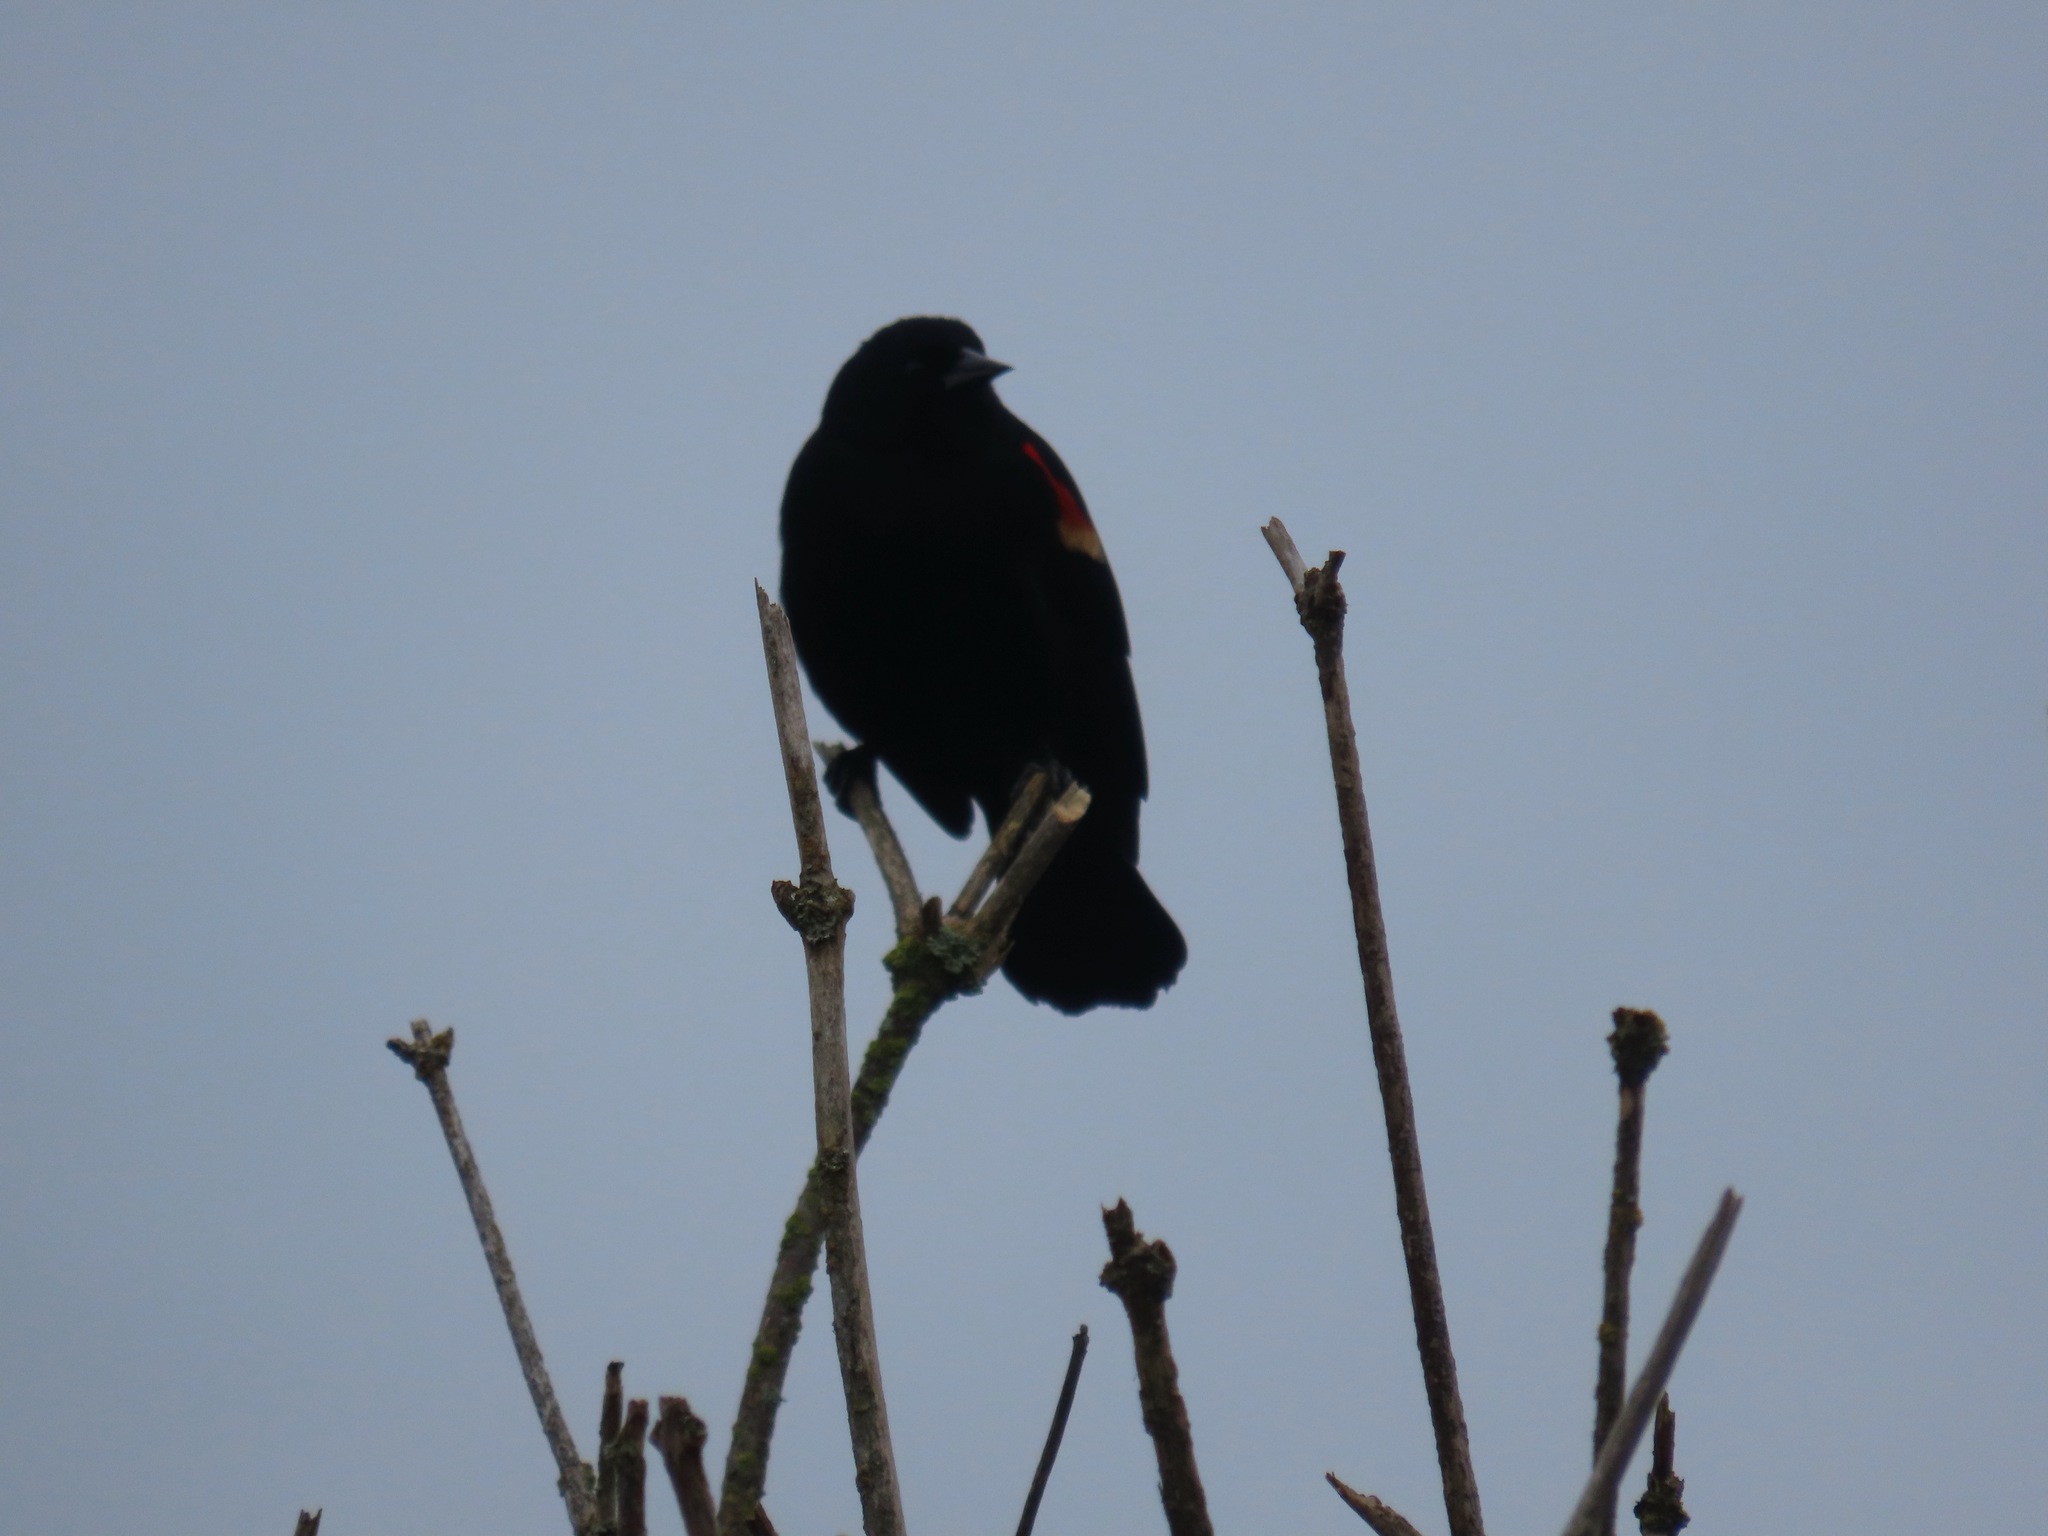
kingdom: Animalia
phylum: Chordata
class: Aves
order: Passeriformes
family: Icteridae
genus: Agelaius
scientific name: Agelaius phoeniceus
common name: Red-winged blackbird
